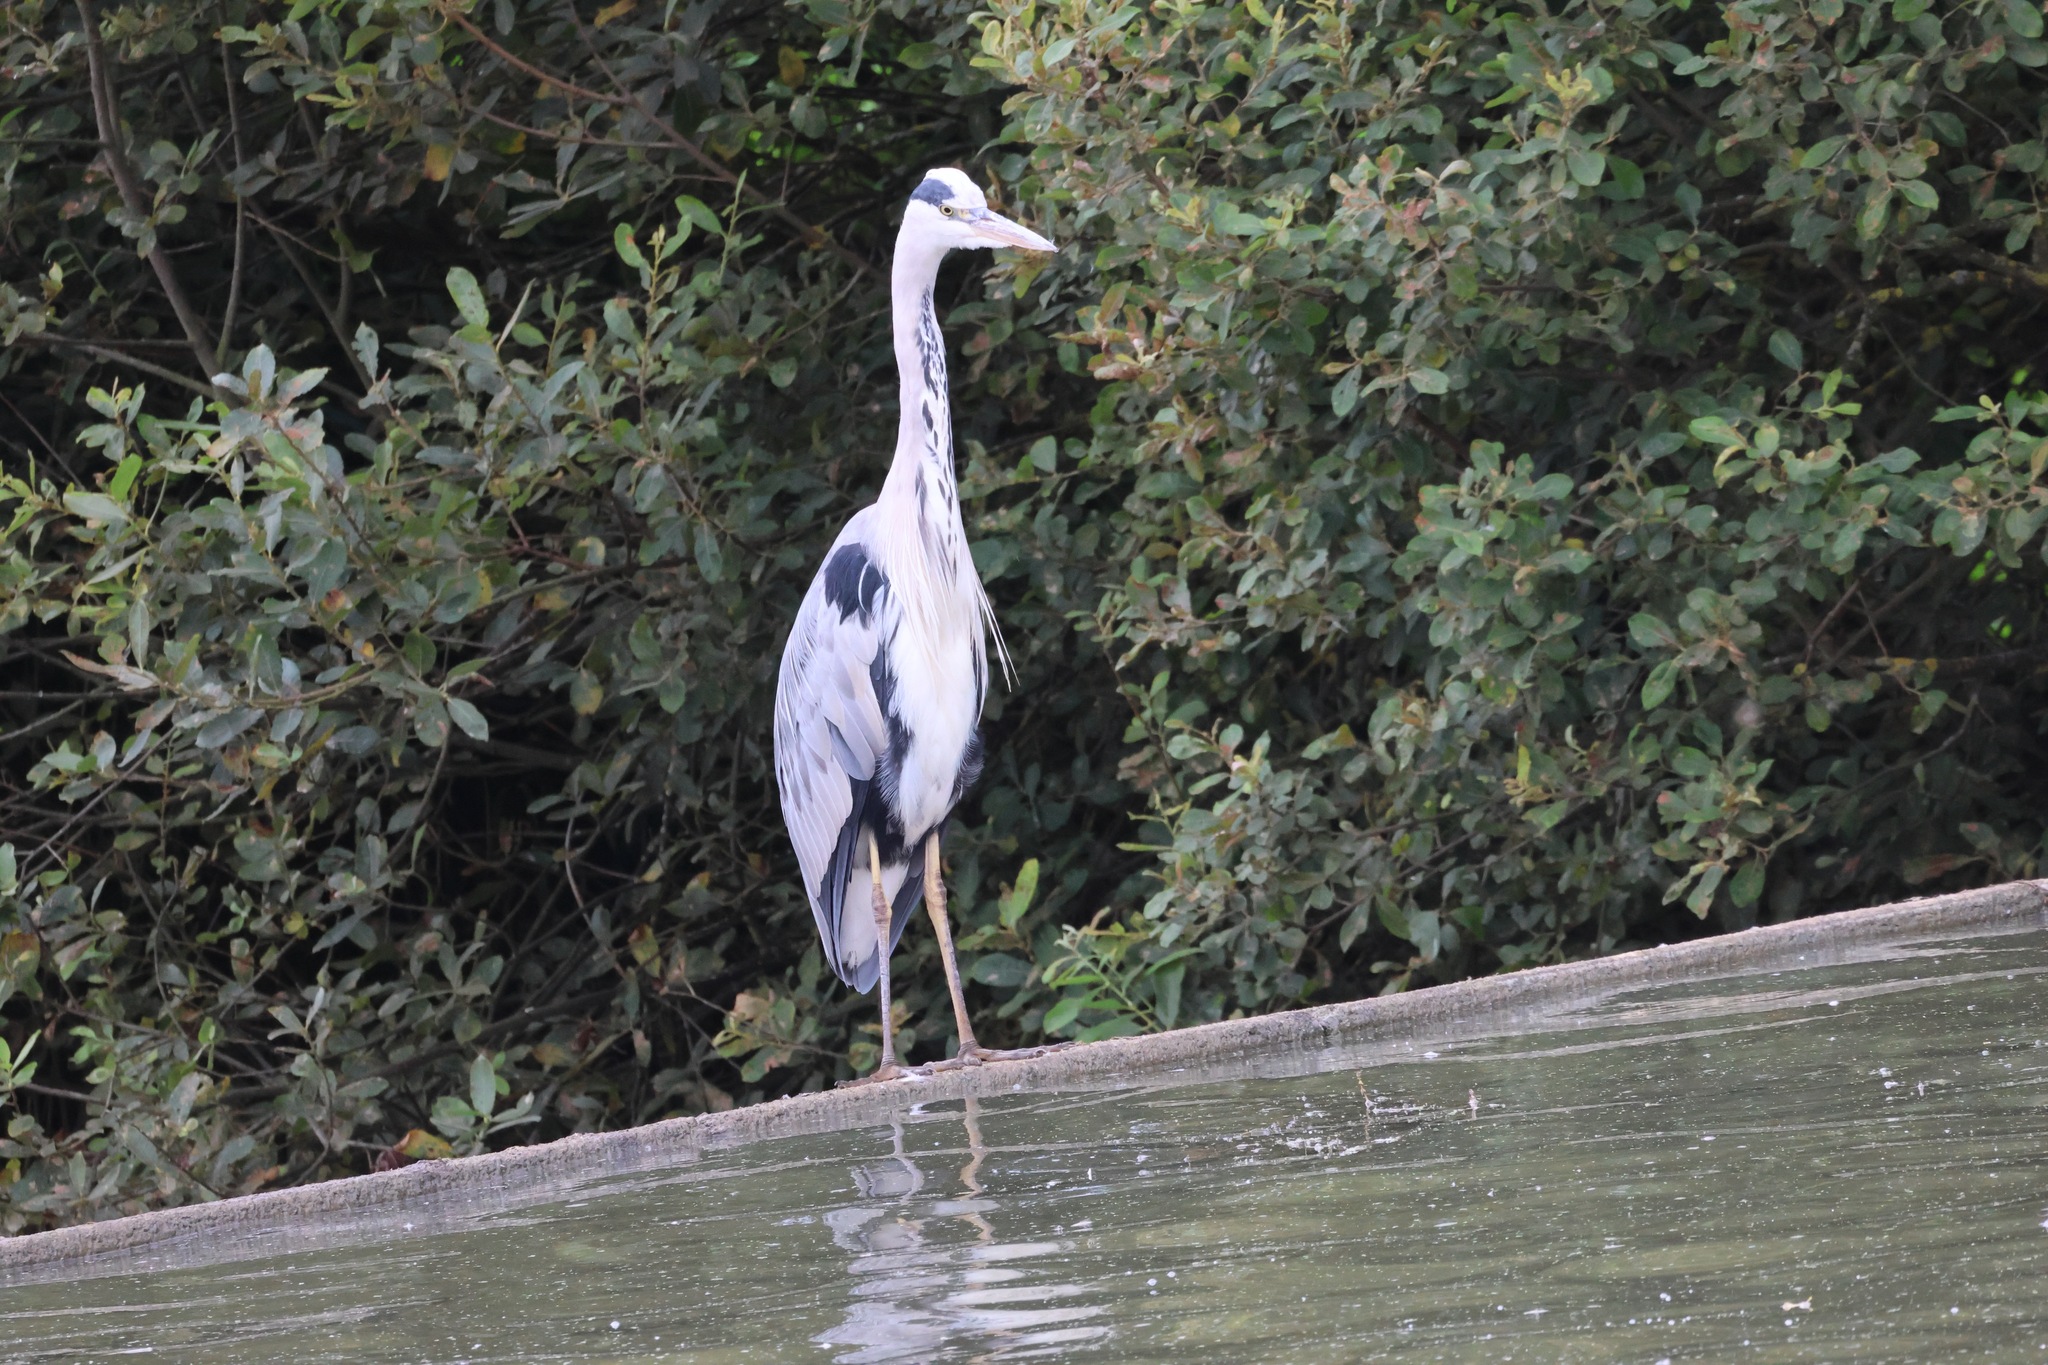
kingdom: Animalia
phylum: Chordata
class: Aves
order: Pelecaniformes
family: Ardeidae
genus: Ardea
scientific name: Ardea cinerea
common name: Grey heron
